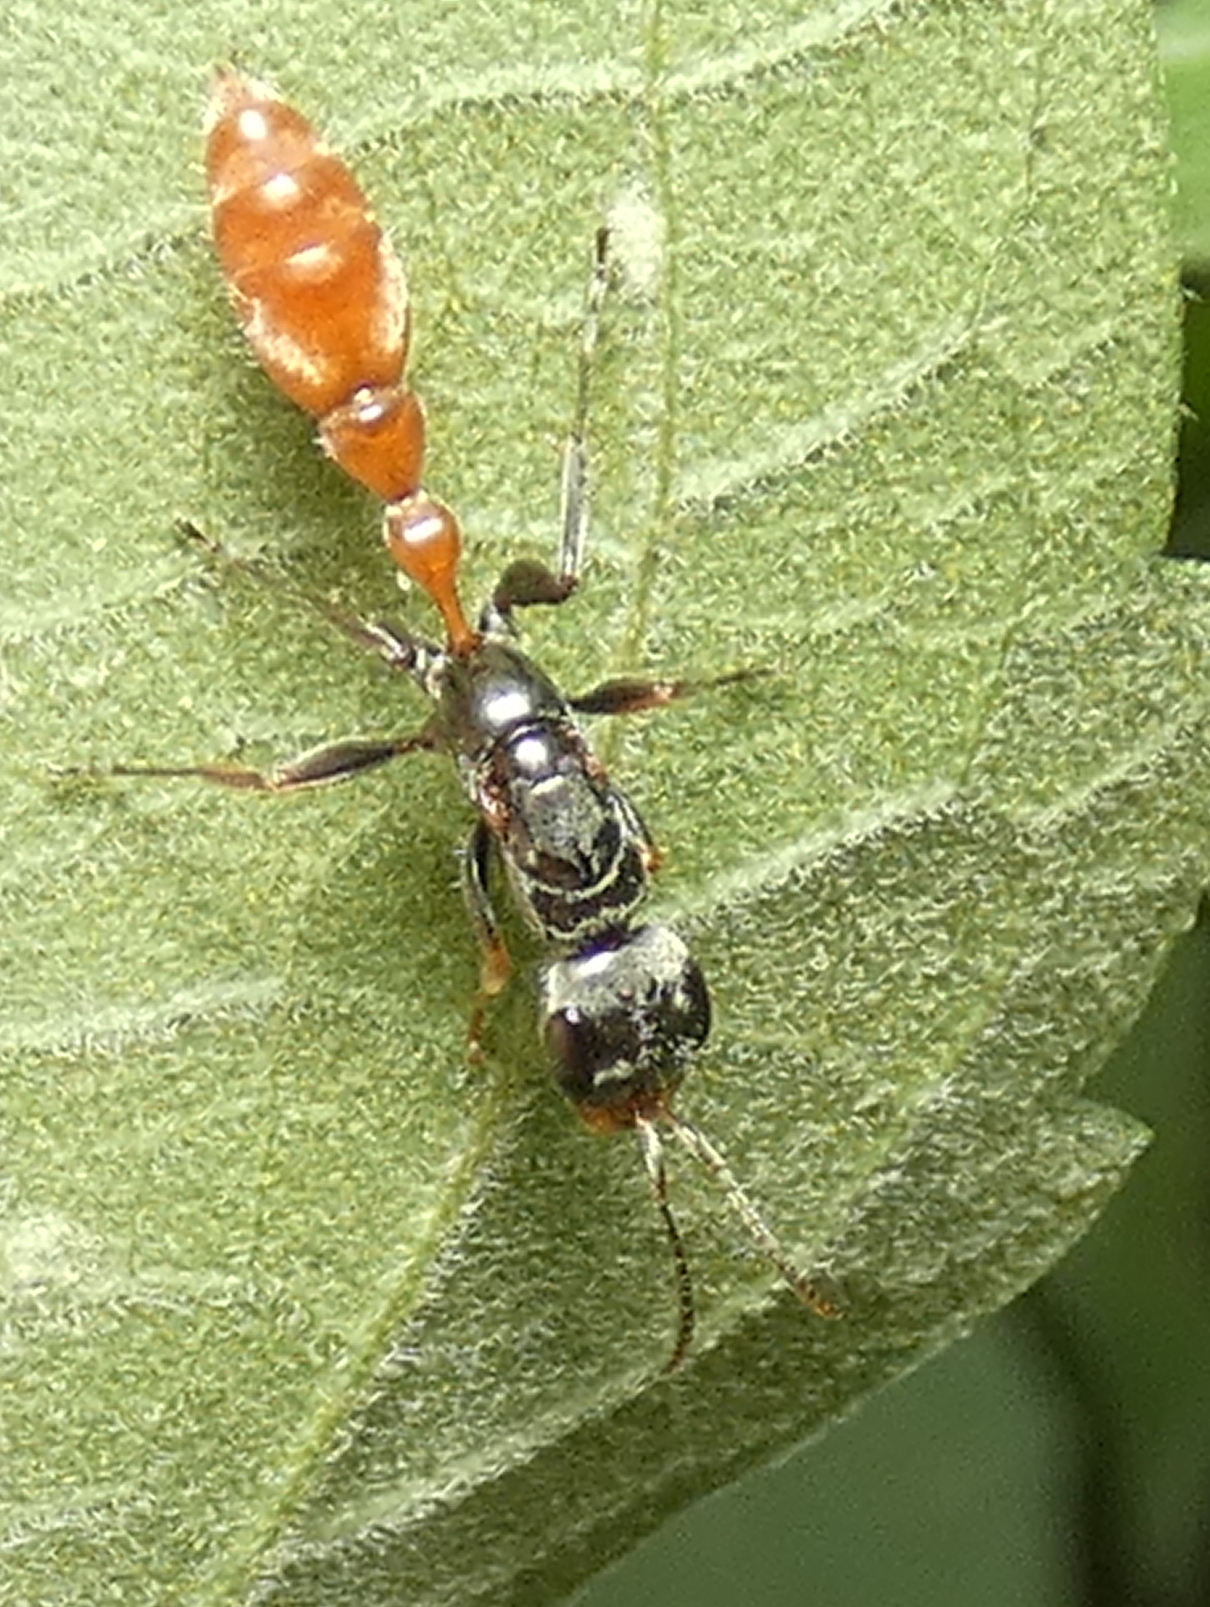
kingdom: Animalia
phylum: Arthropoda
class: Insecta
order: Hymenoptera
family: Formicidae
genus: Pseudomyrmex
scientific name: Pseudomyrmex venustus
